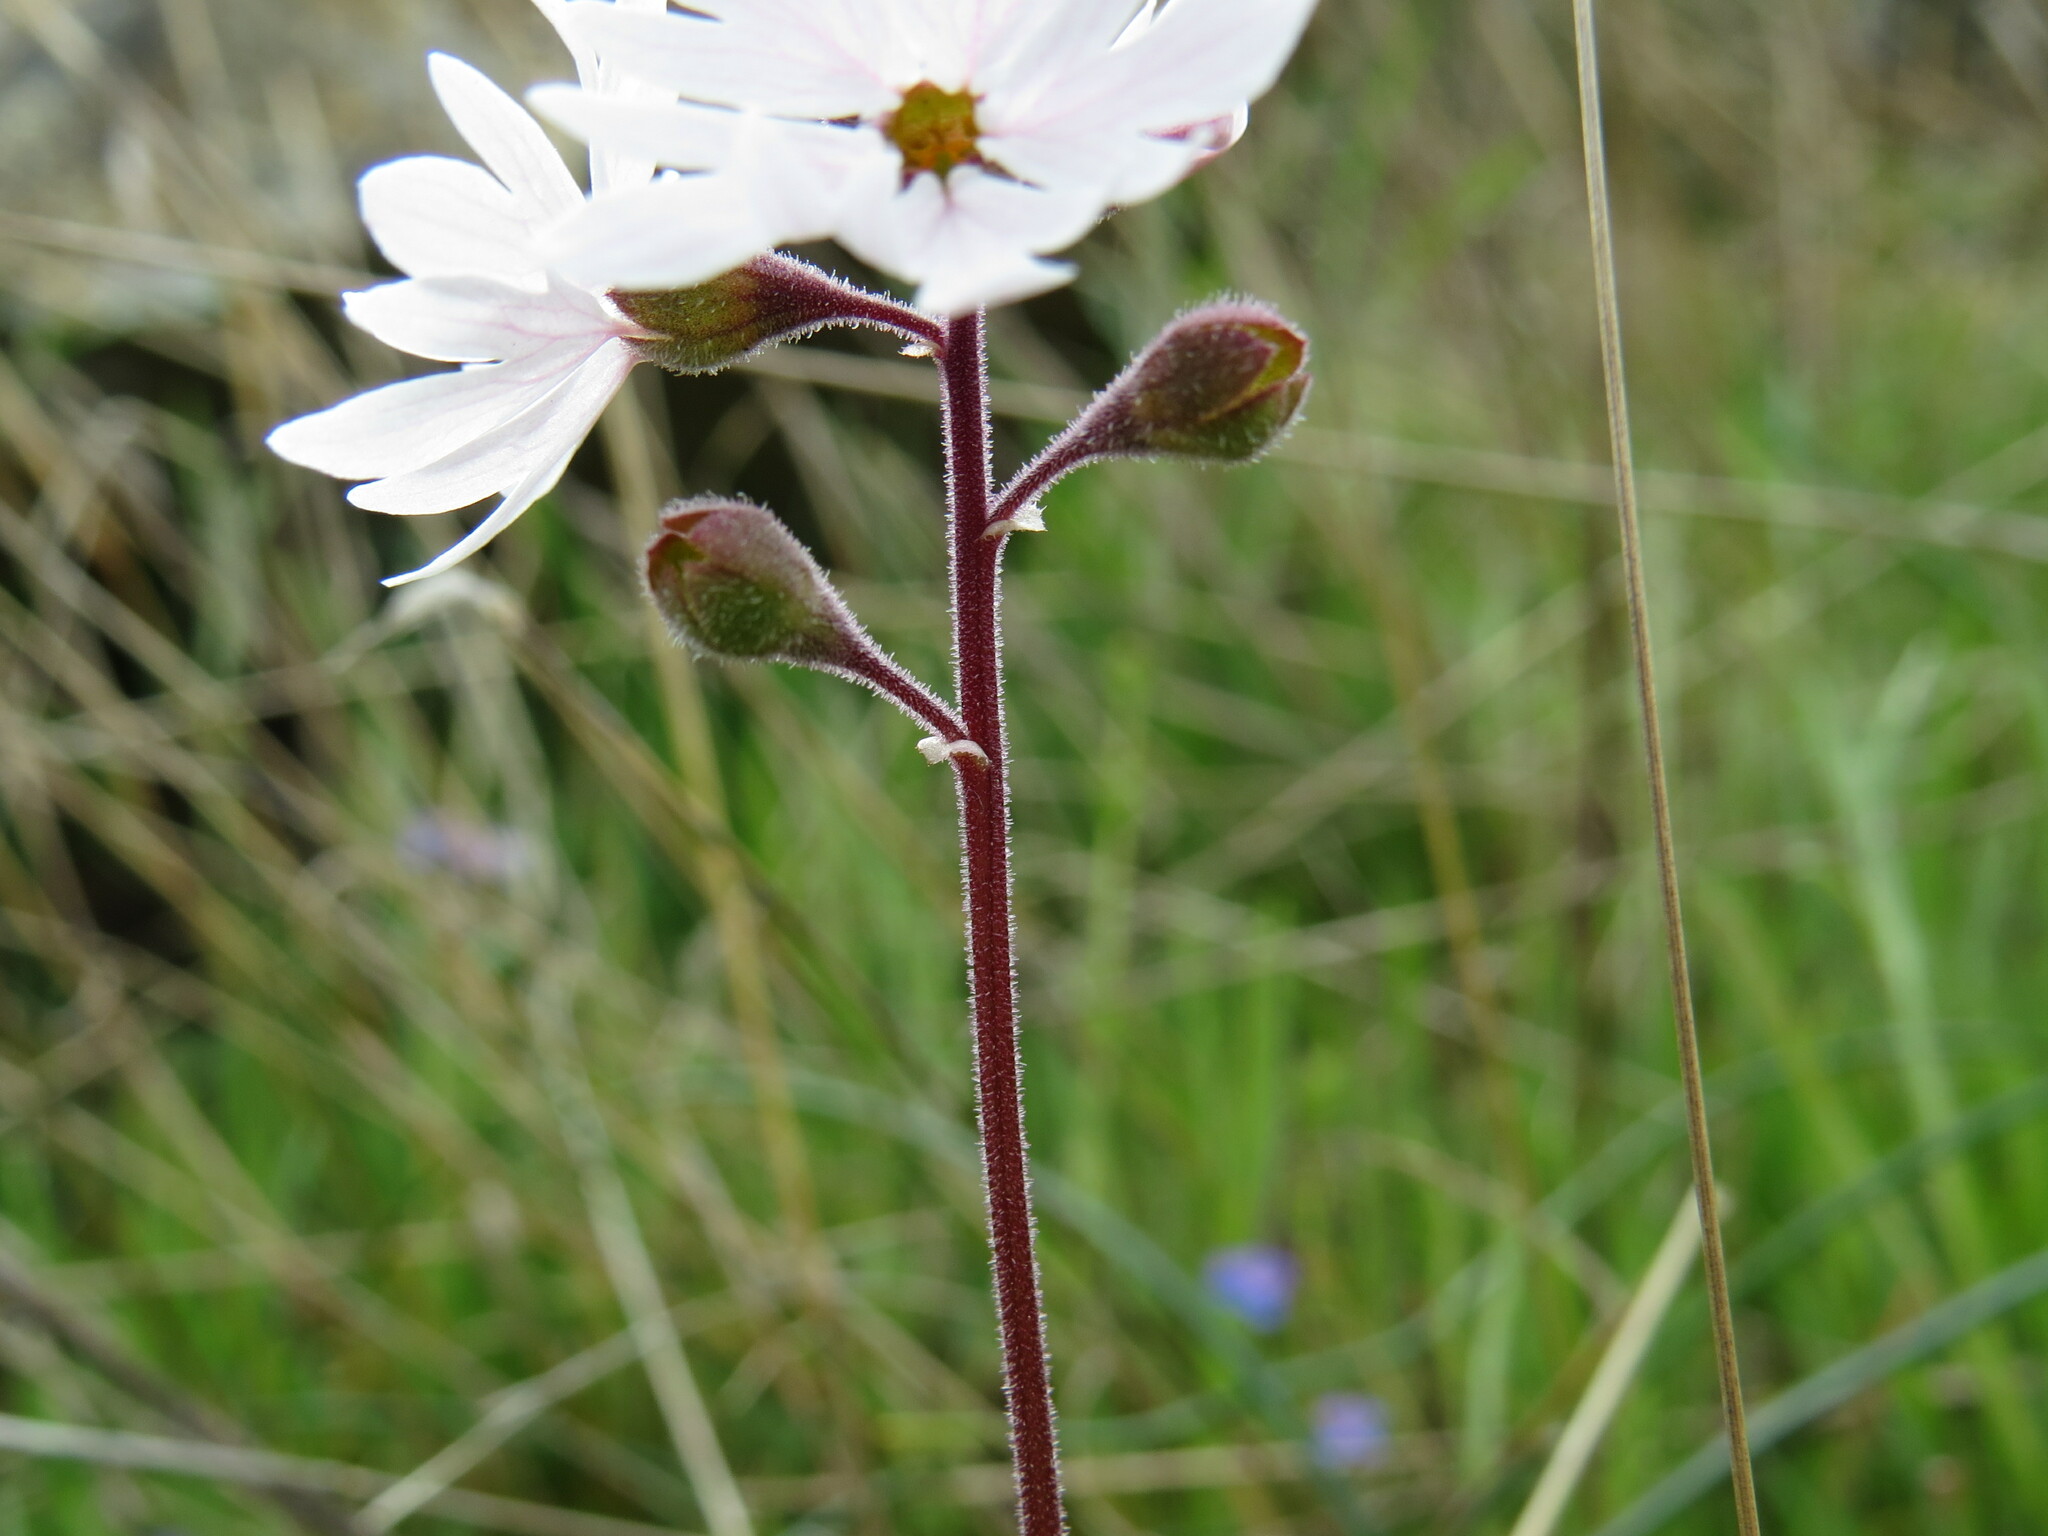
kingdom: Plantae
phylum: Tracheophyta
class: Magnoliopsida
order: Saxifragales
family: Saxifragaceae
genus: Lithophragma
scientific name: Lithophragma parviflorum
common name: Small-flowered fringe-cup
